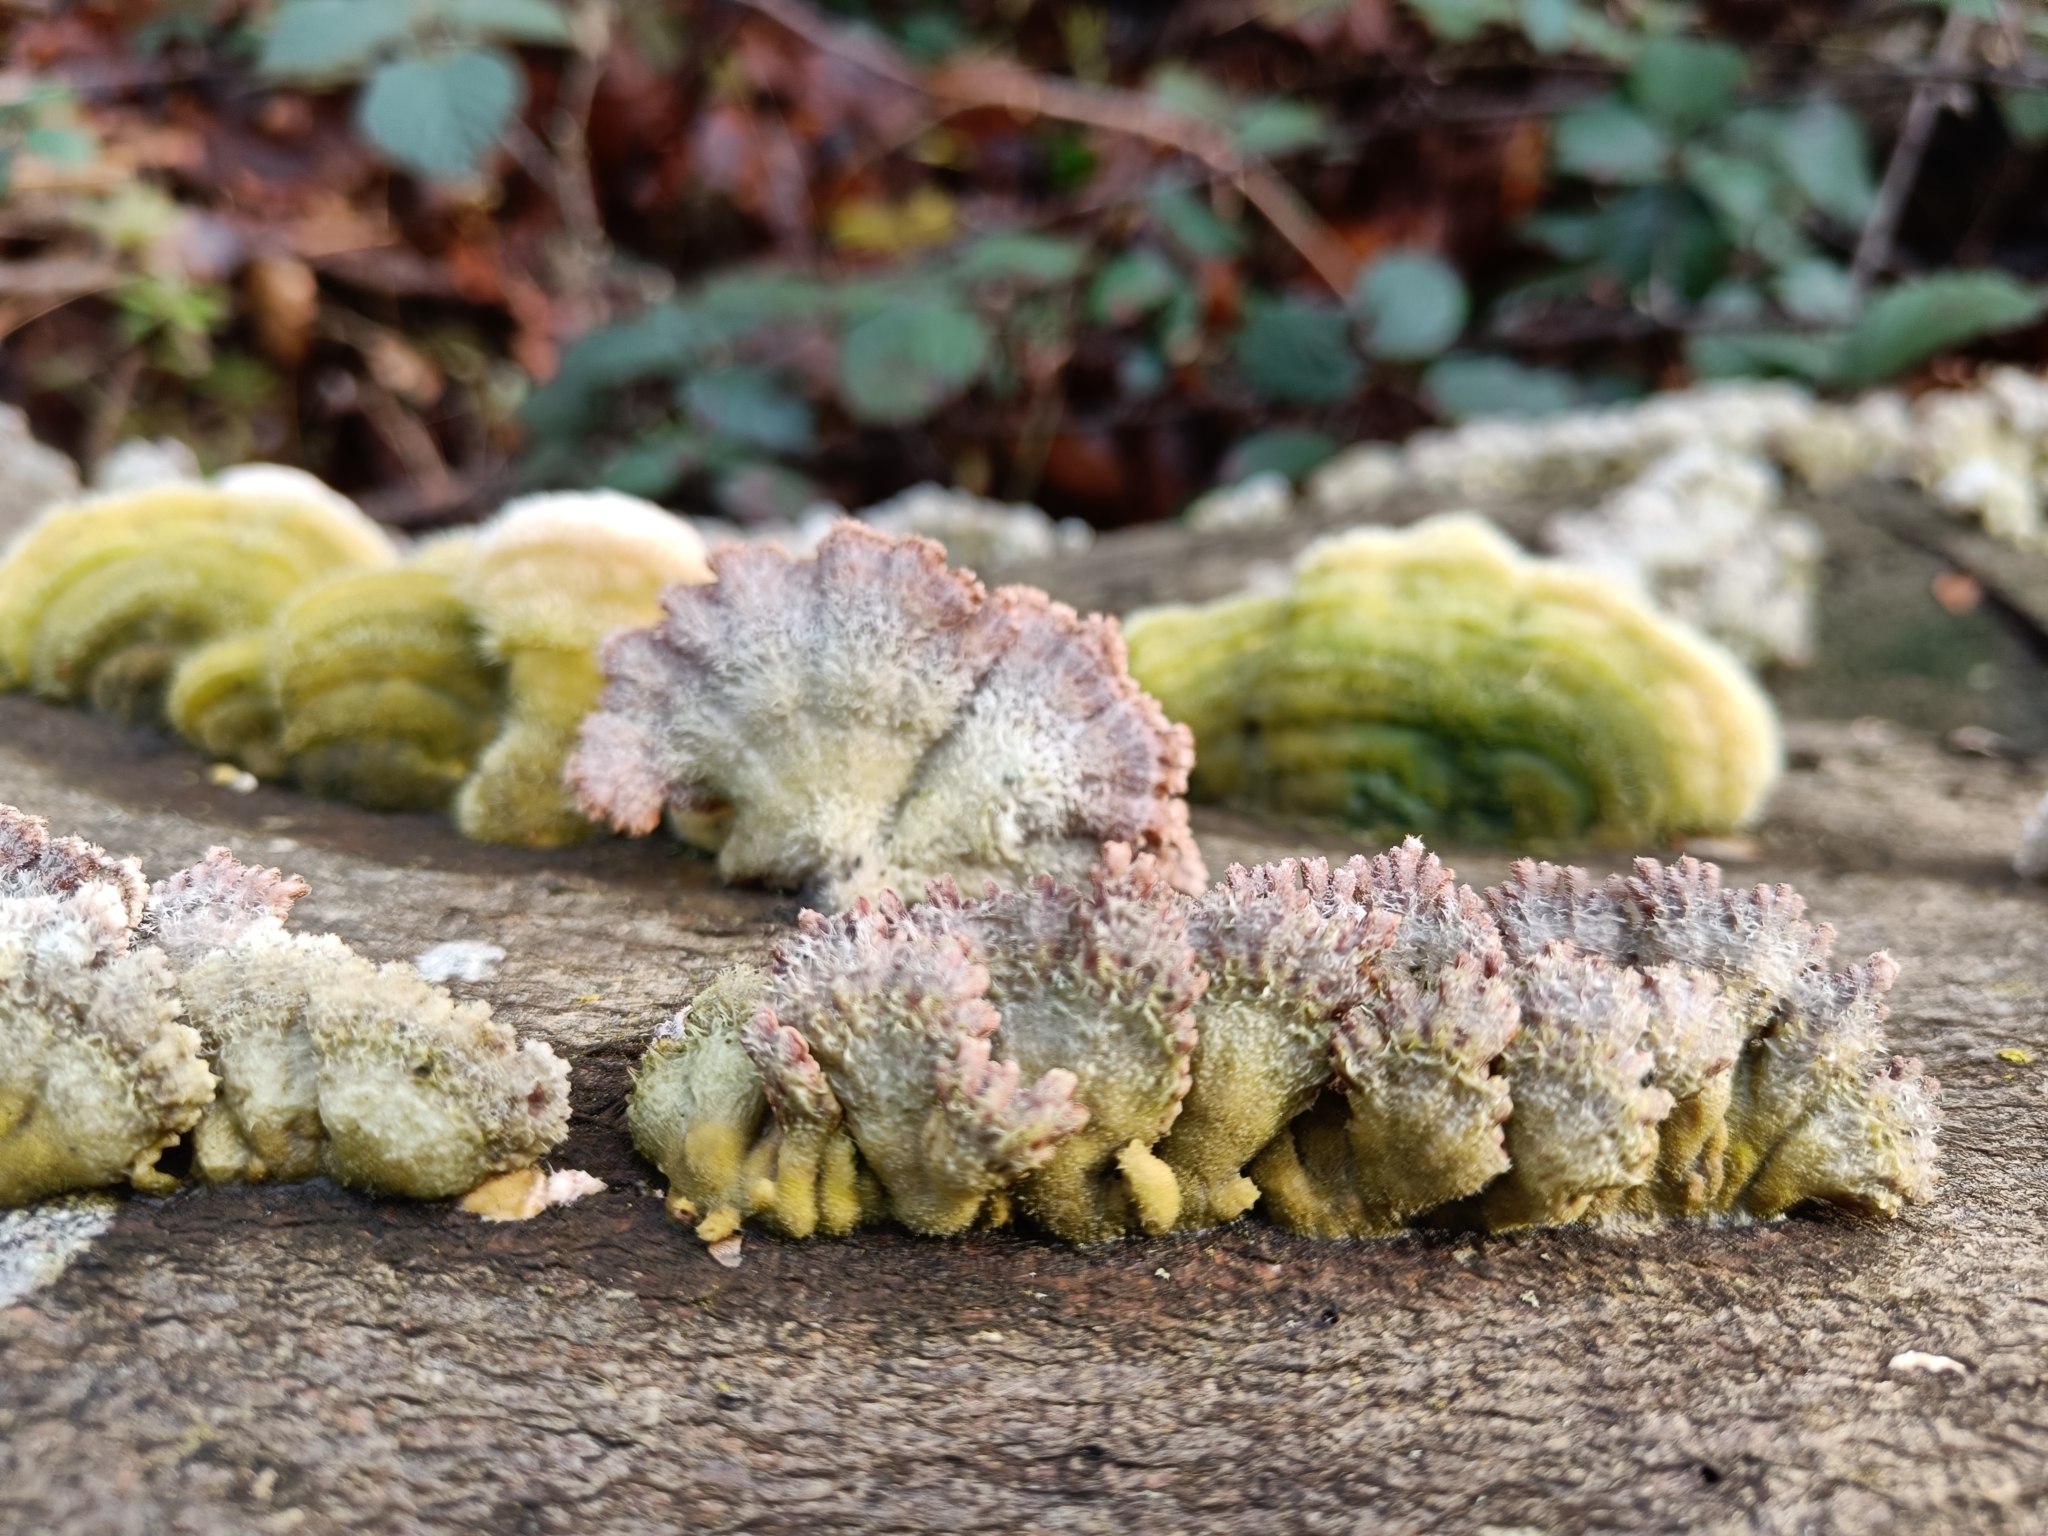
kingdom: Fungi
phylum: Basidiomycota
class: Agaricomycetes
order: Agaricales
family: Schizophyllaceae
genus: Schizophyllum
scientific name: Schizophyllum commune
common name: Common porecrust
